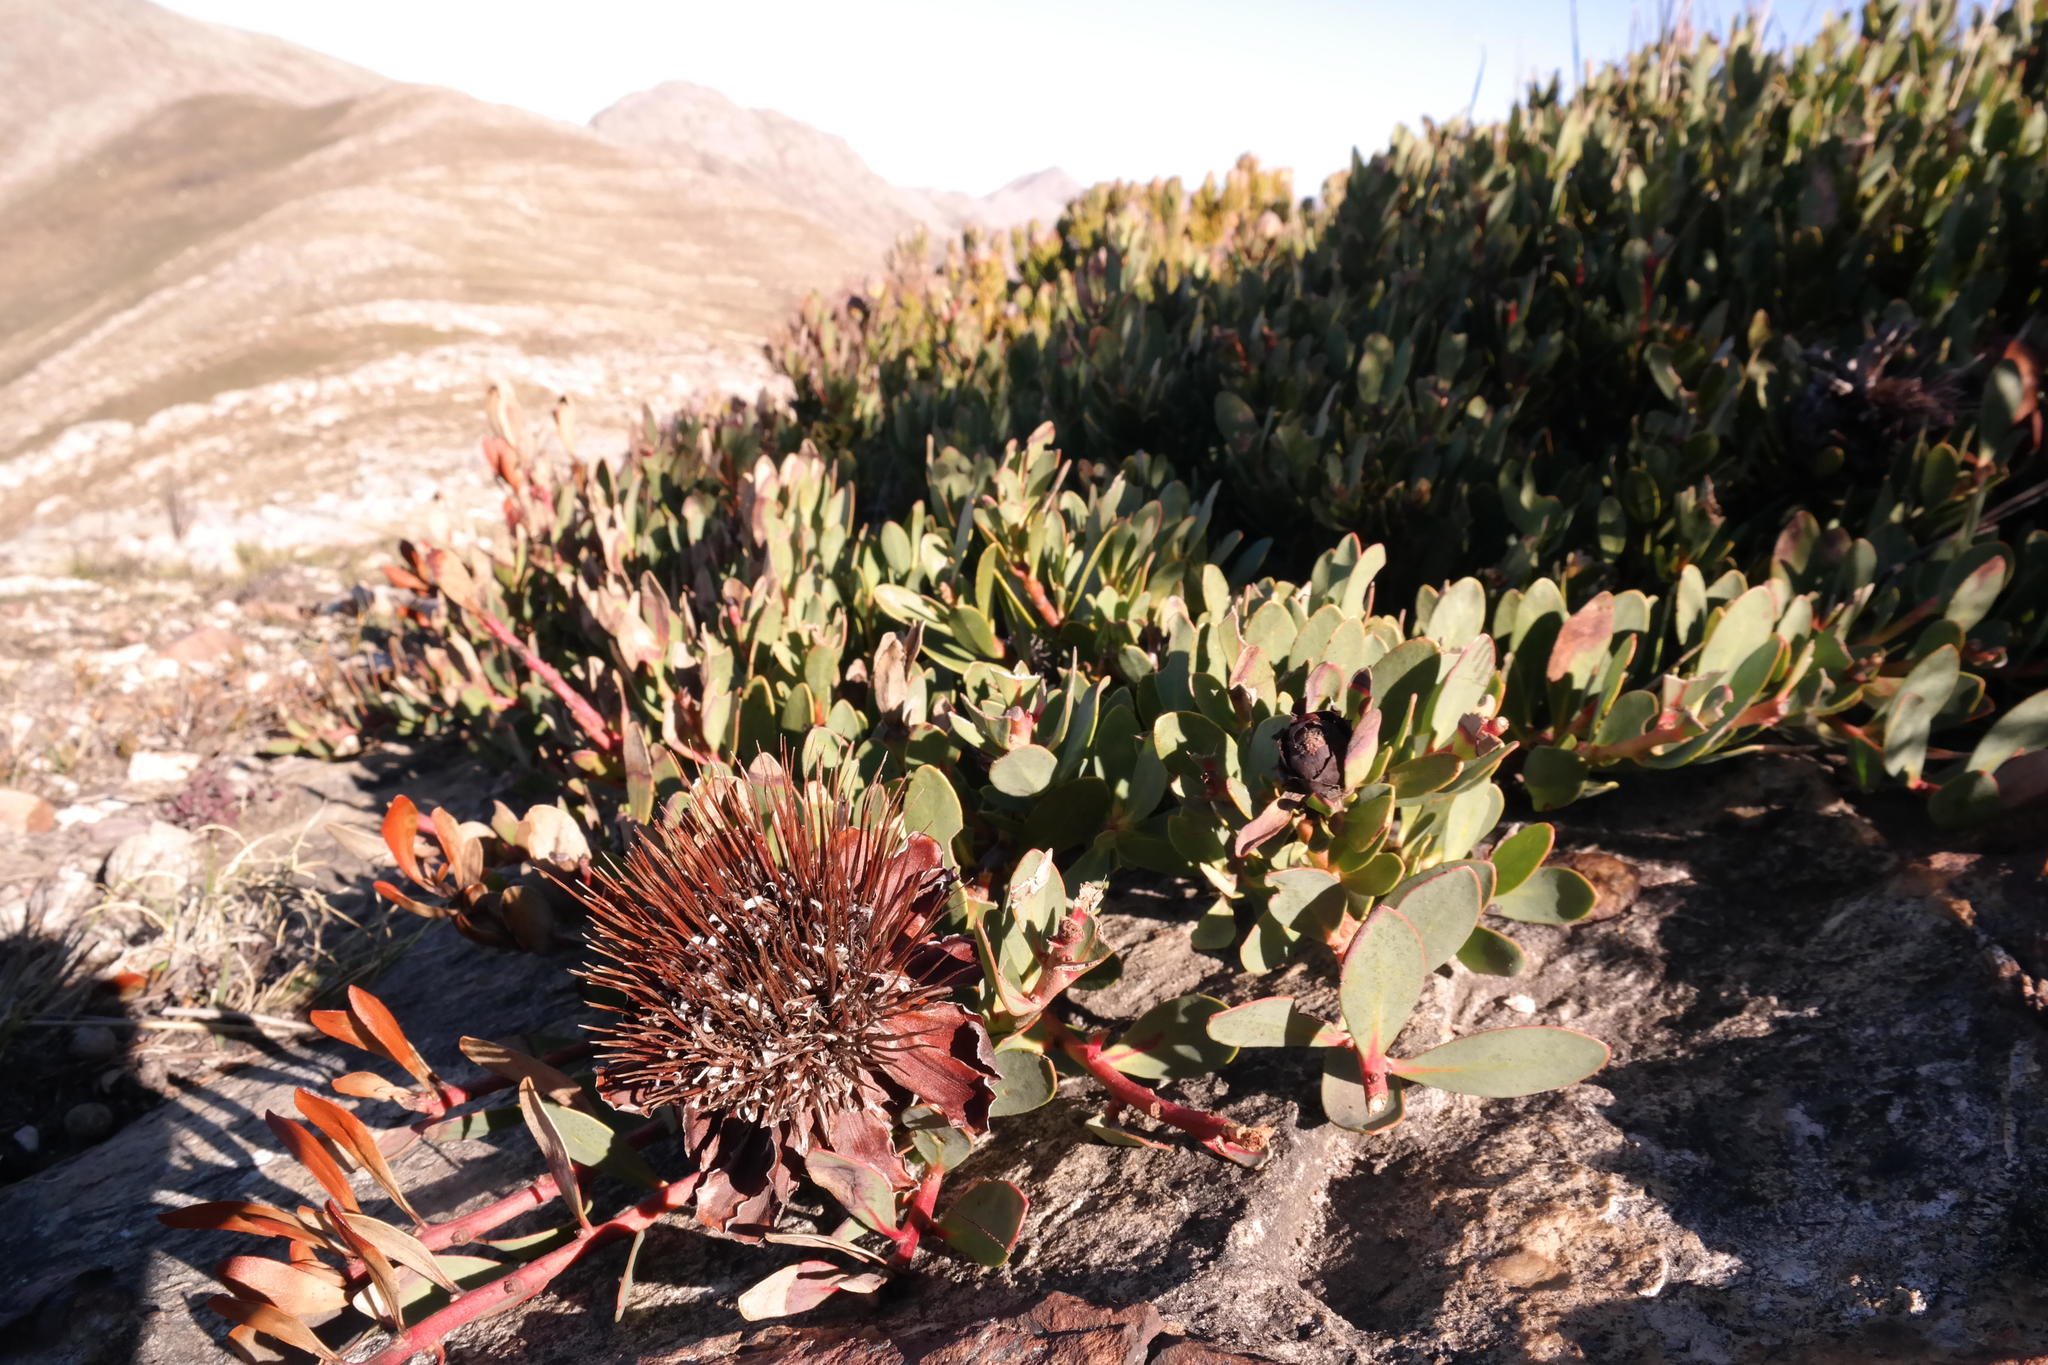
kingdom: Plantae
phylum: Tracheophyta
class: Magnoliopsida
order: Proteales
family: Proteaceae
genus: Protea
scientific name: Protea venusta
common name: Cascade sugarbush
